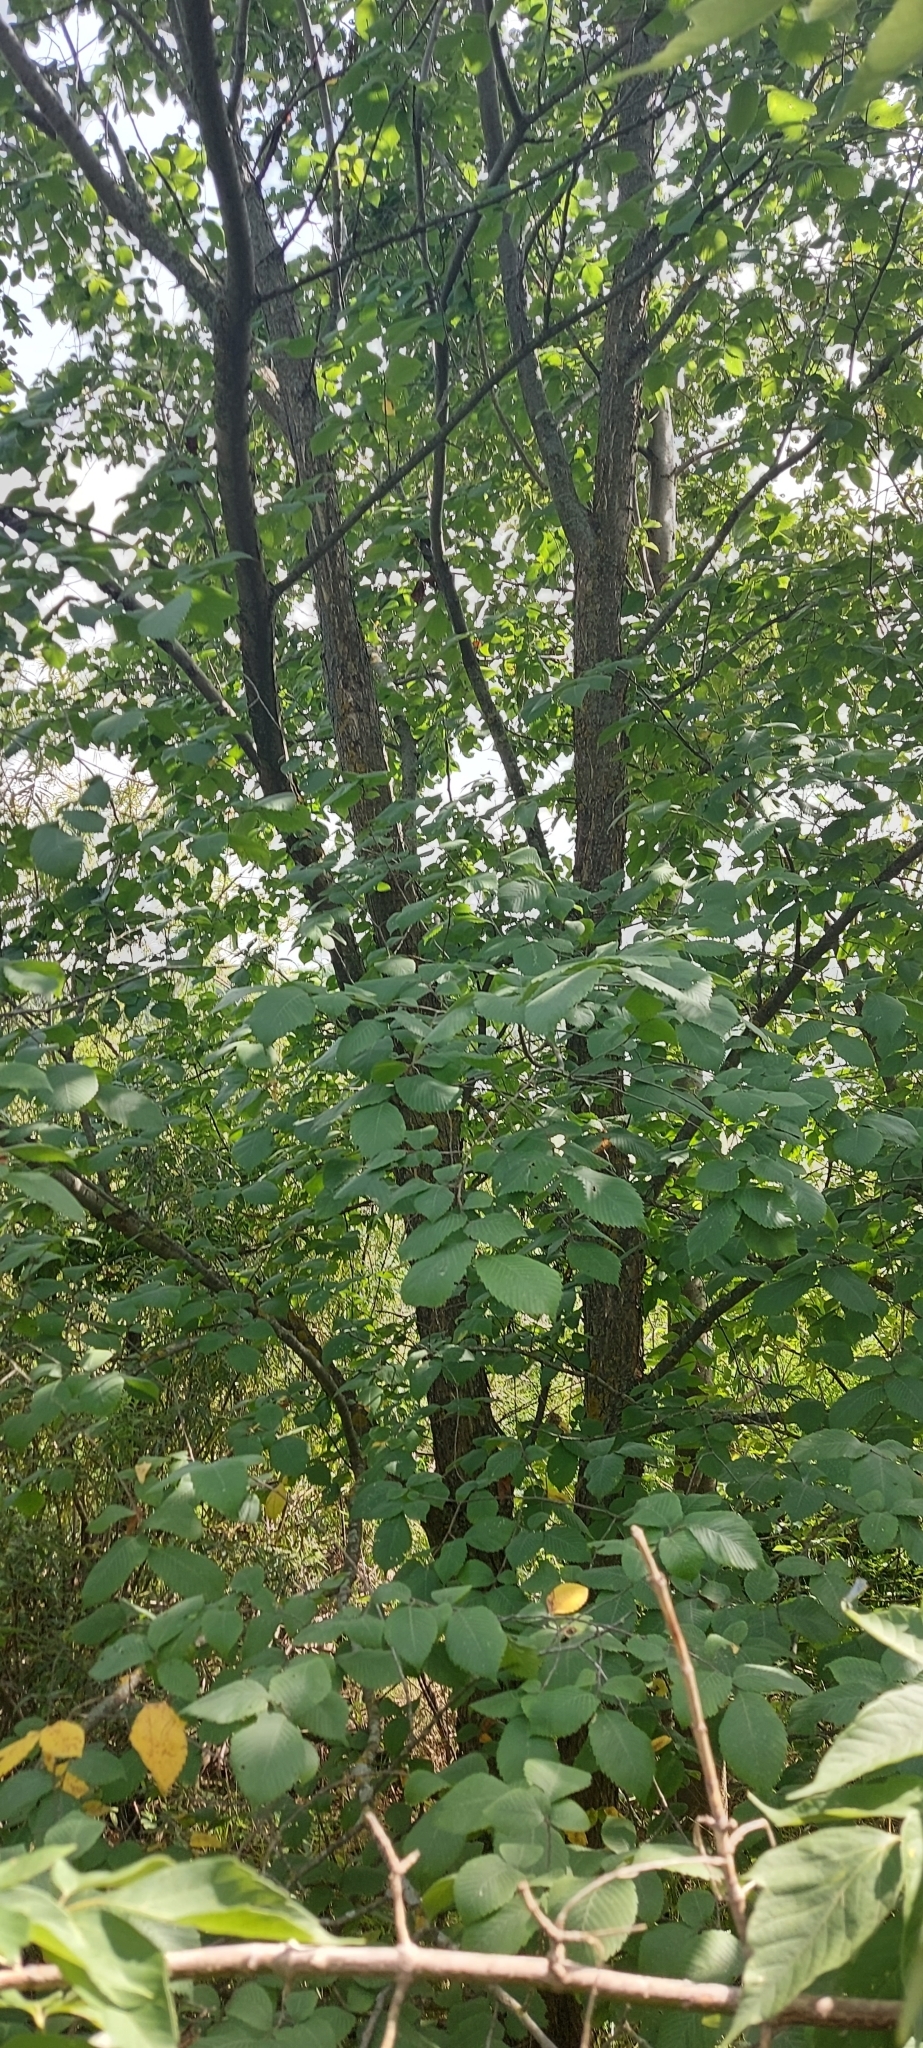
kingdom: Plantae
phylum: Tracheophyta
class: Magnoliopsida
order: Rosales
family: Ulmaceae
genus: Ulmus
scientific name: Ulmus laevis
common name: European white-elm
